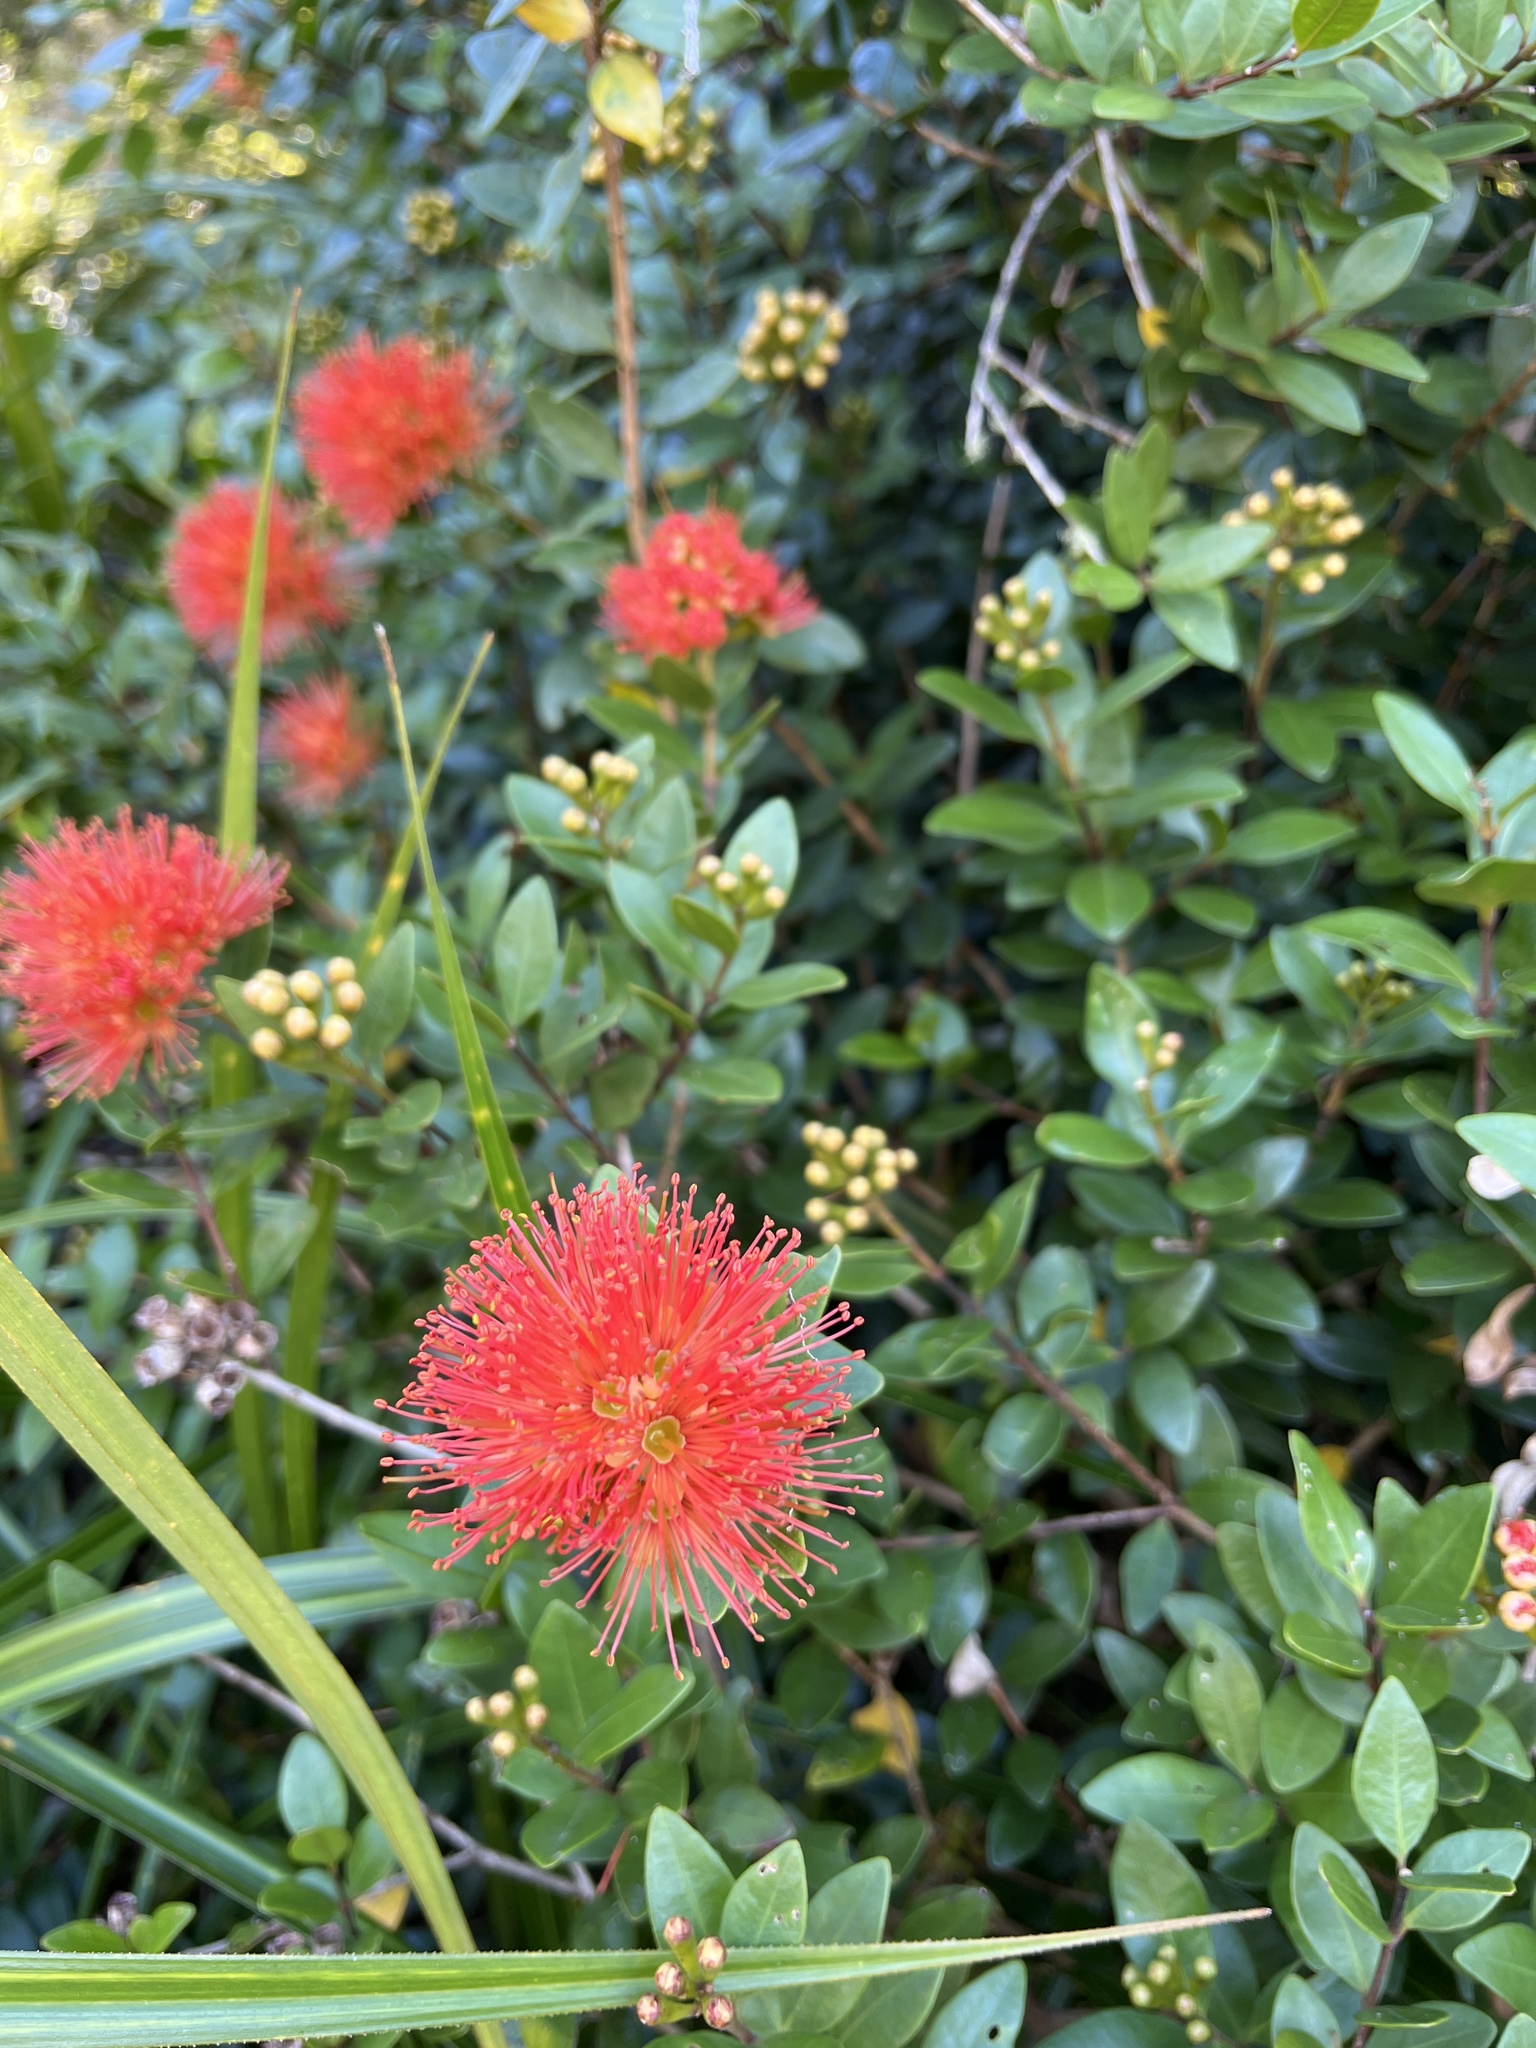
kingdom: Plantae
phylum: Tracheophyta
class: Magnoliopsida
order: Myrtales
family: Myrtaceae
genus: Metrosideros
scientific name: Metrosideros fulgens
